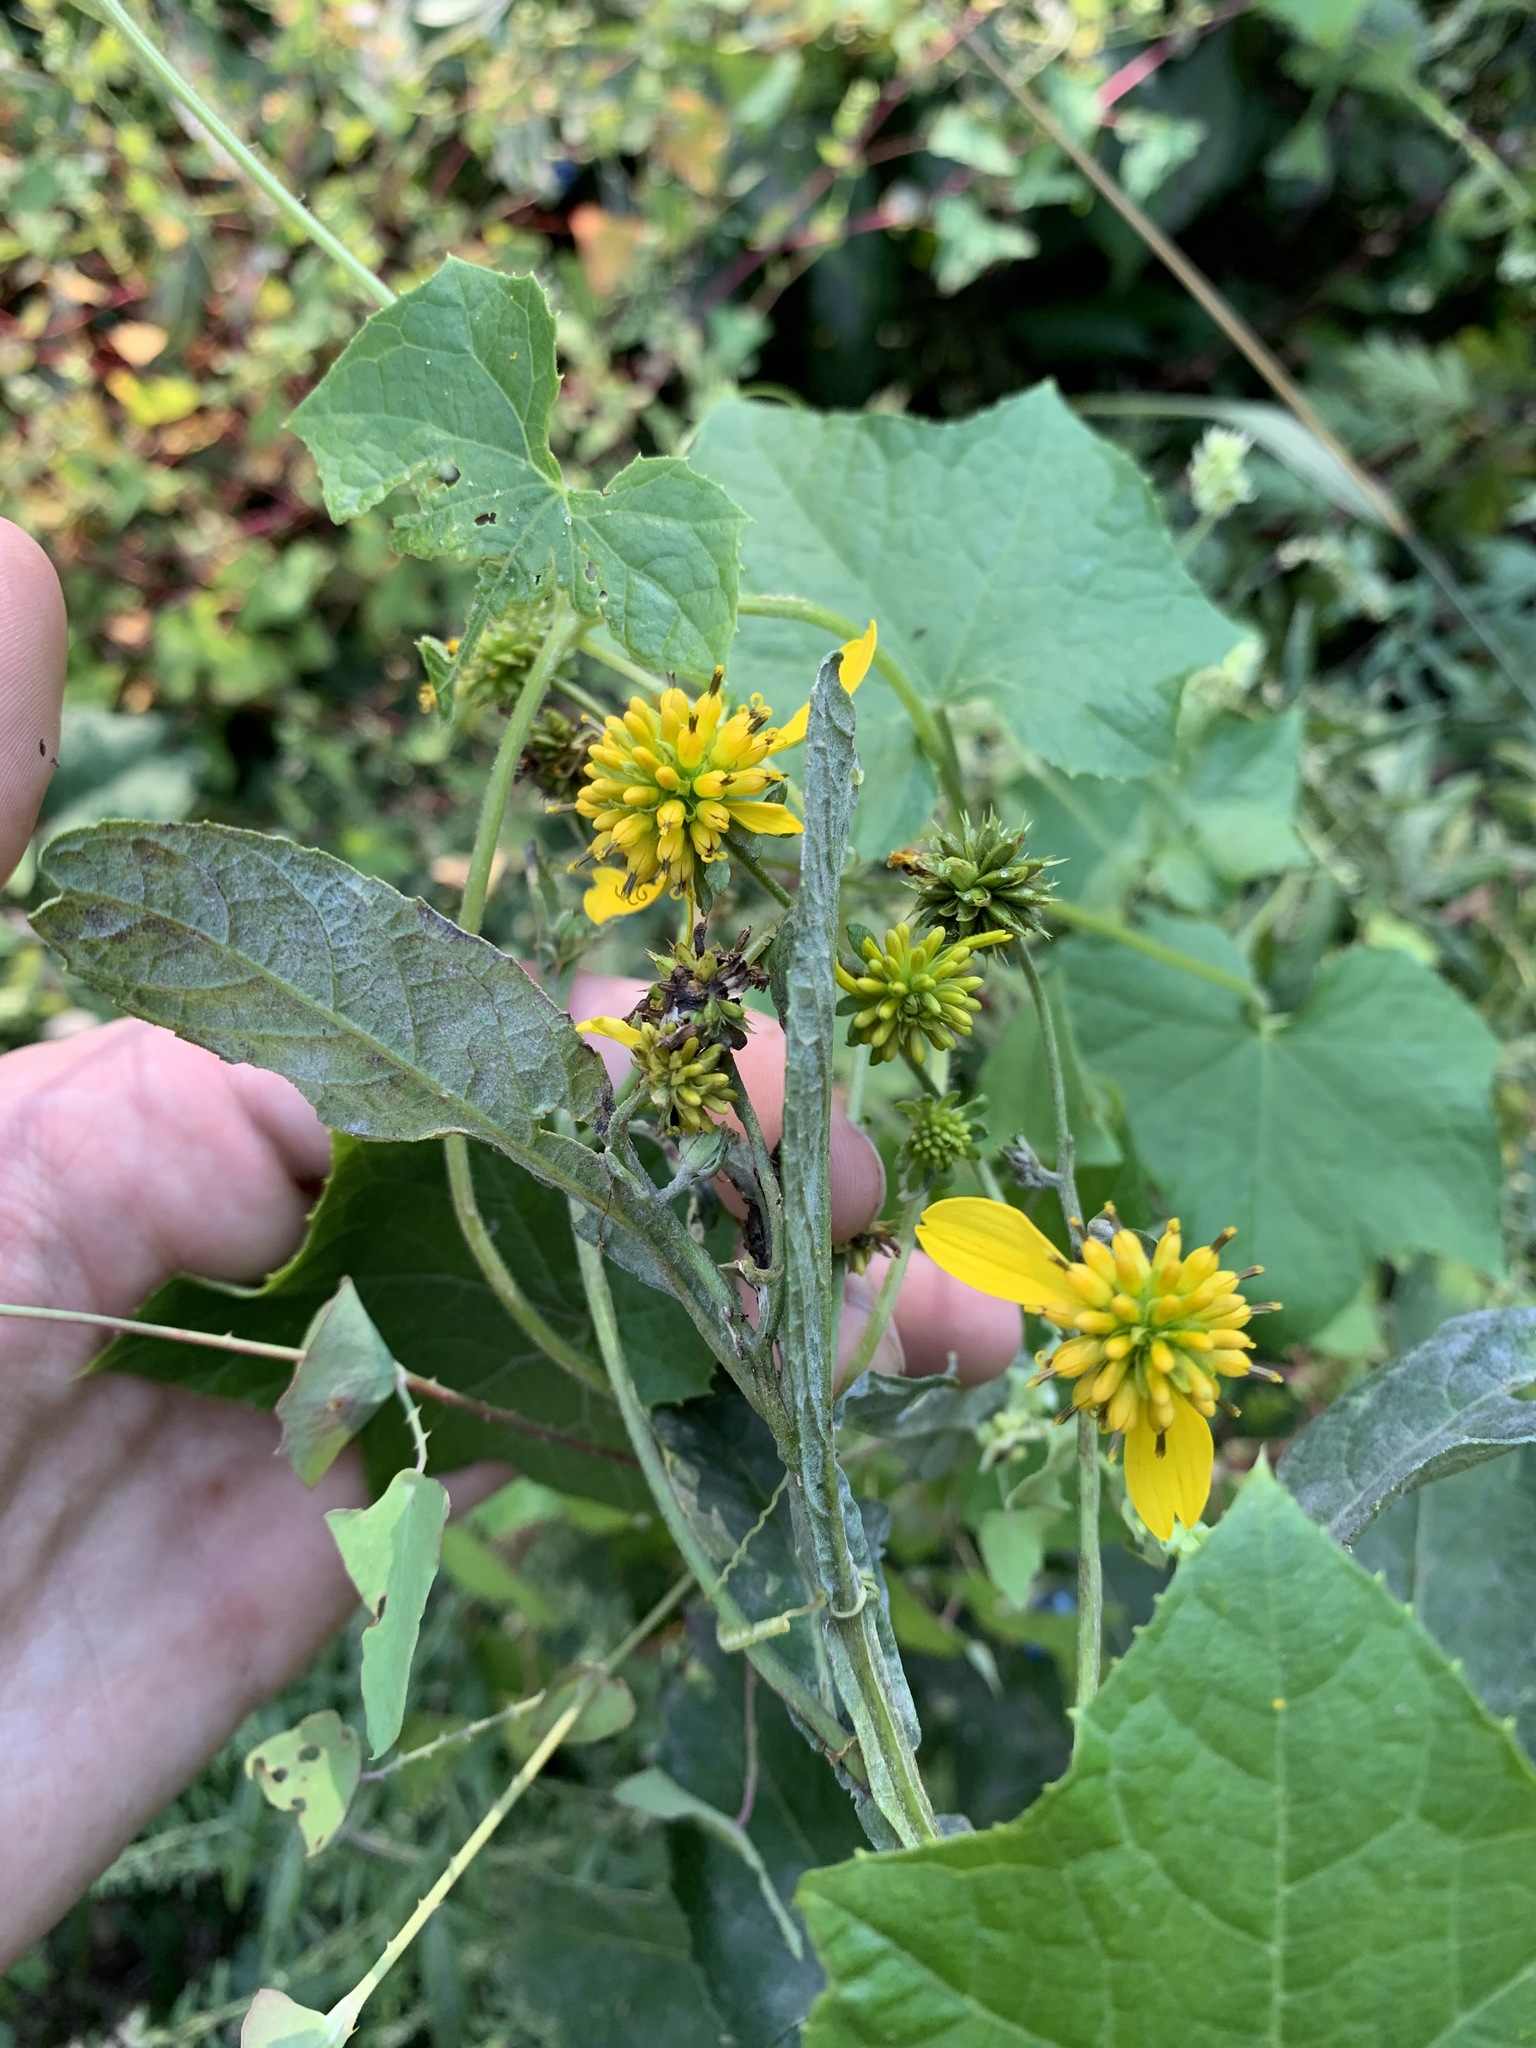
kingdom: Plantae
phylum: Tracheophyta
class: Magnoliopsida
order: Asterales
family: Asteraceae
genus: Verbesina
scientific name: Verbesina alternifolia
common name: Wingstem
